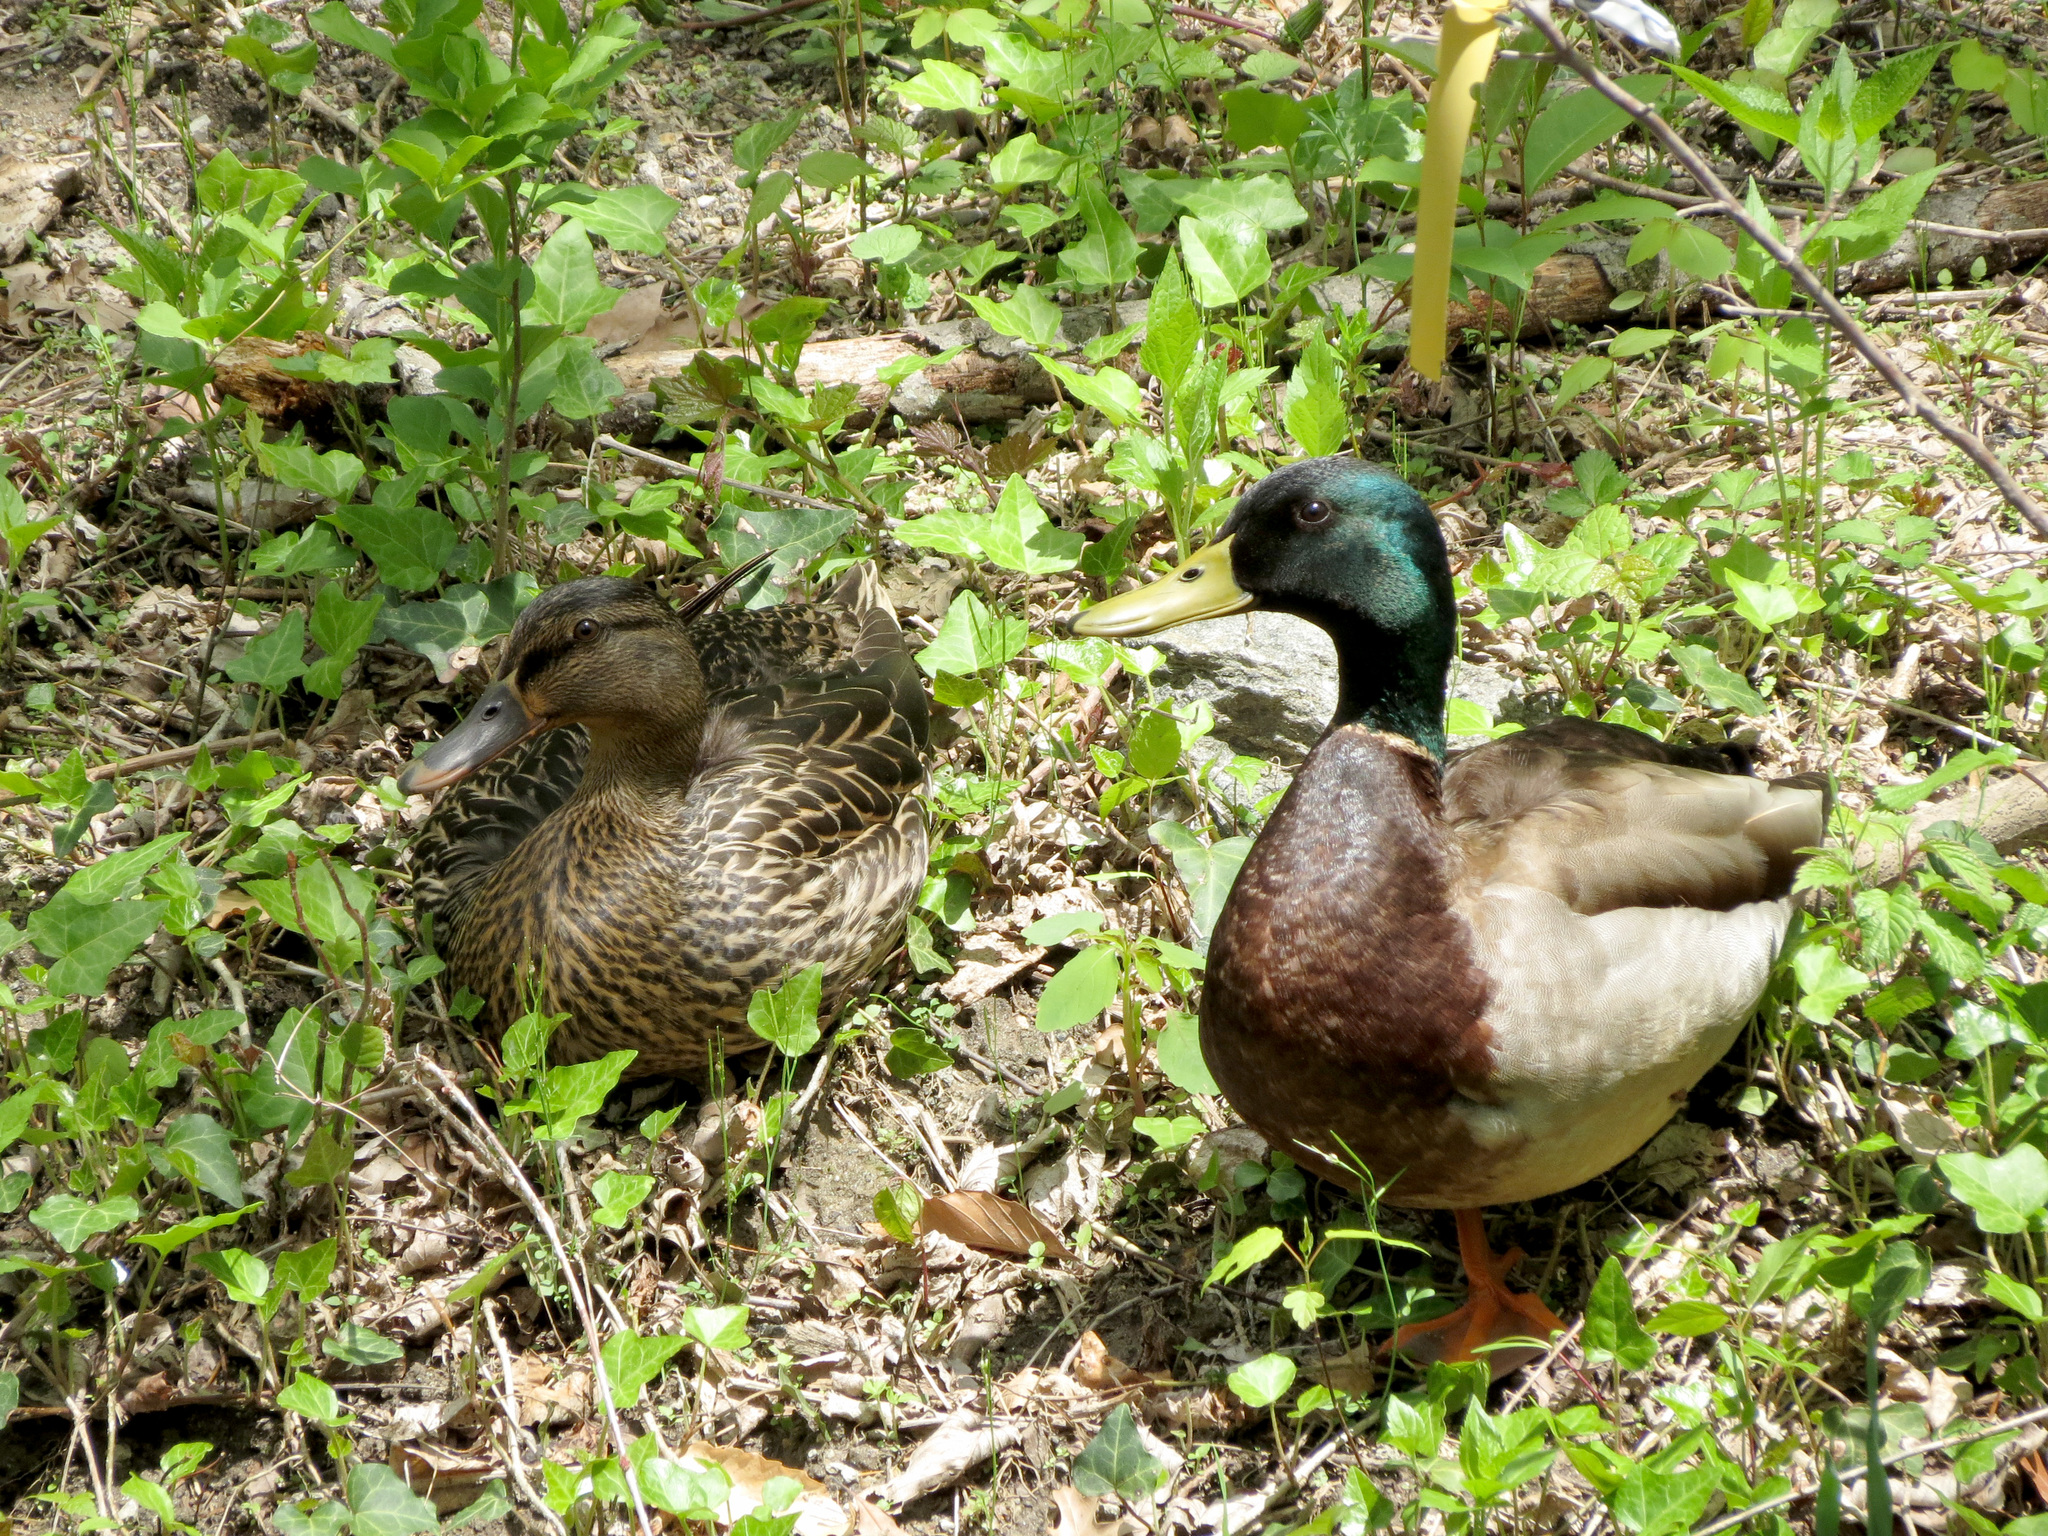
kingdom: Animalia
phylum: Chordata
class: Aves
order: Anseriformes
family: Anatidae
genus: Anas
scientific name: Anas platyrhynchos
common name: Mallard
